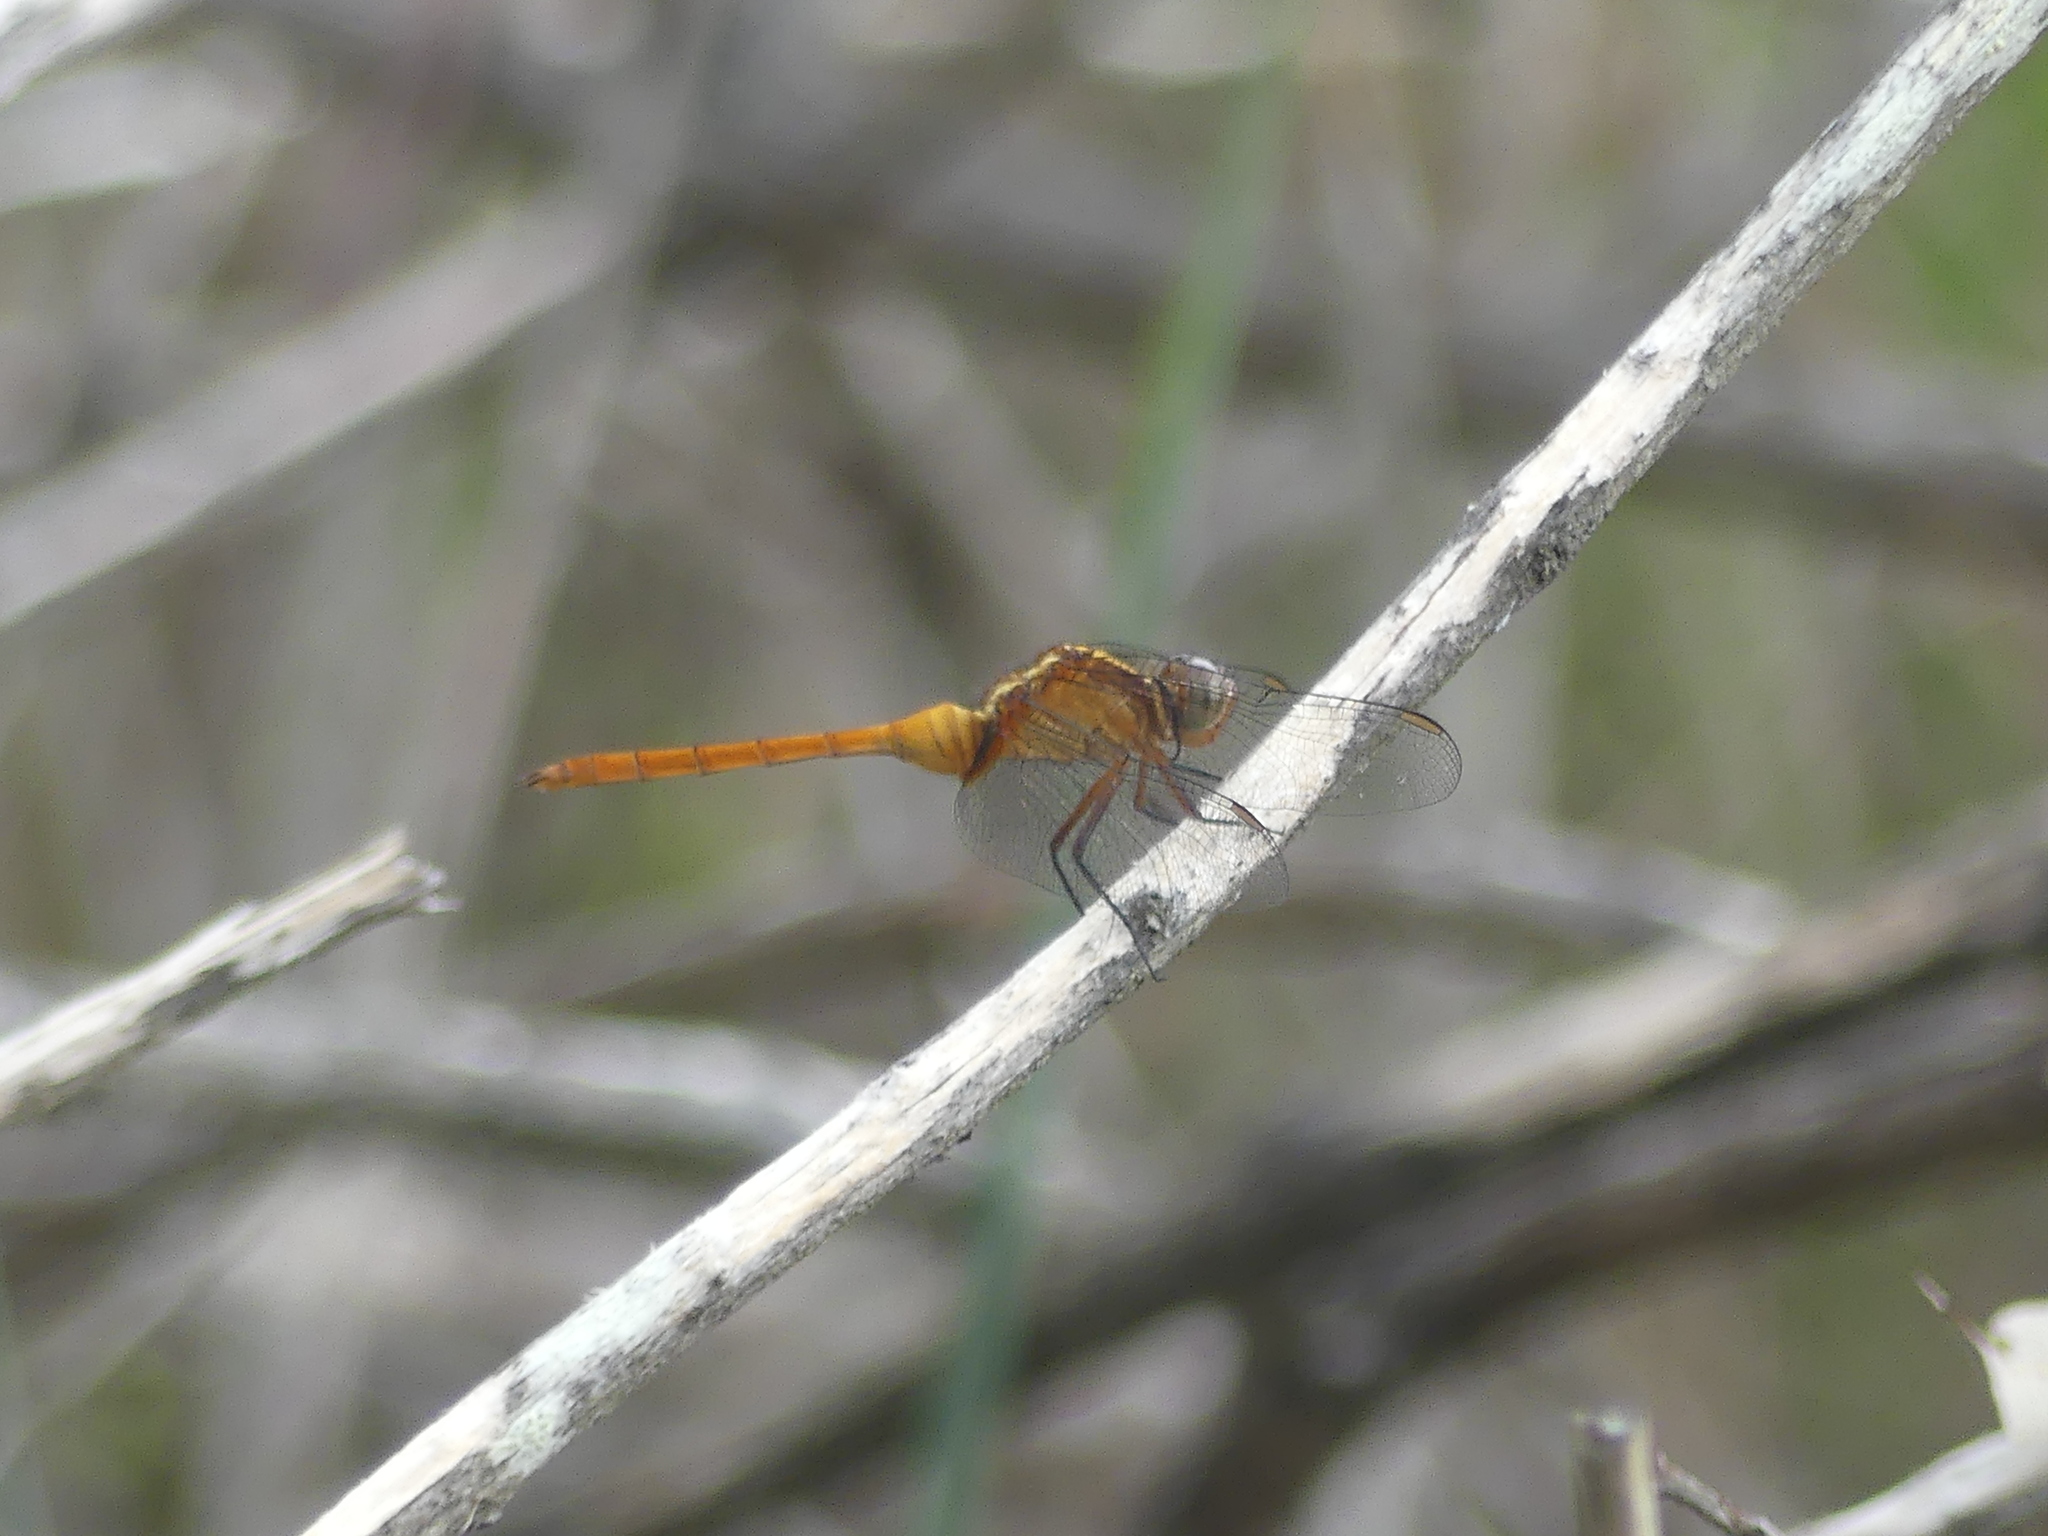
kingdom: Animalia
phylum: Arthropoda
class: Insecta
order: Odonata
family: Libellulidae
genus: Orthetrum
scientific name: Orthetrum villosovittatum
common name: Firery skimmer
